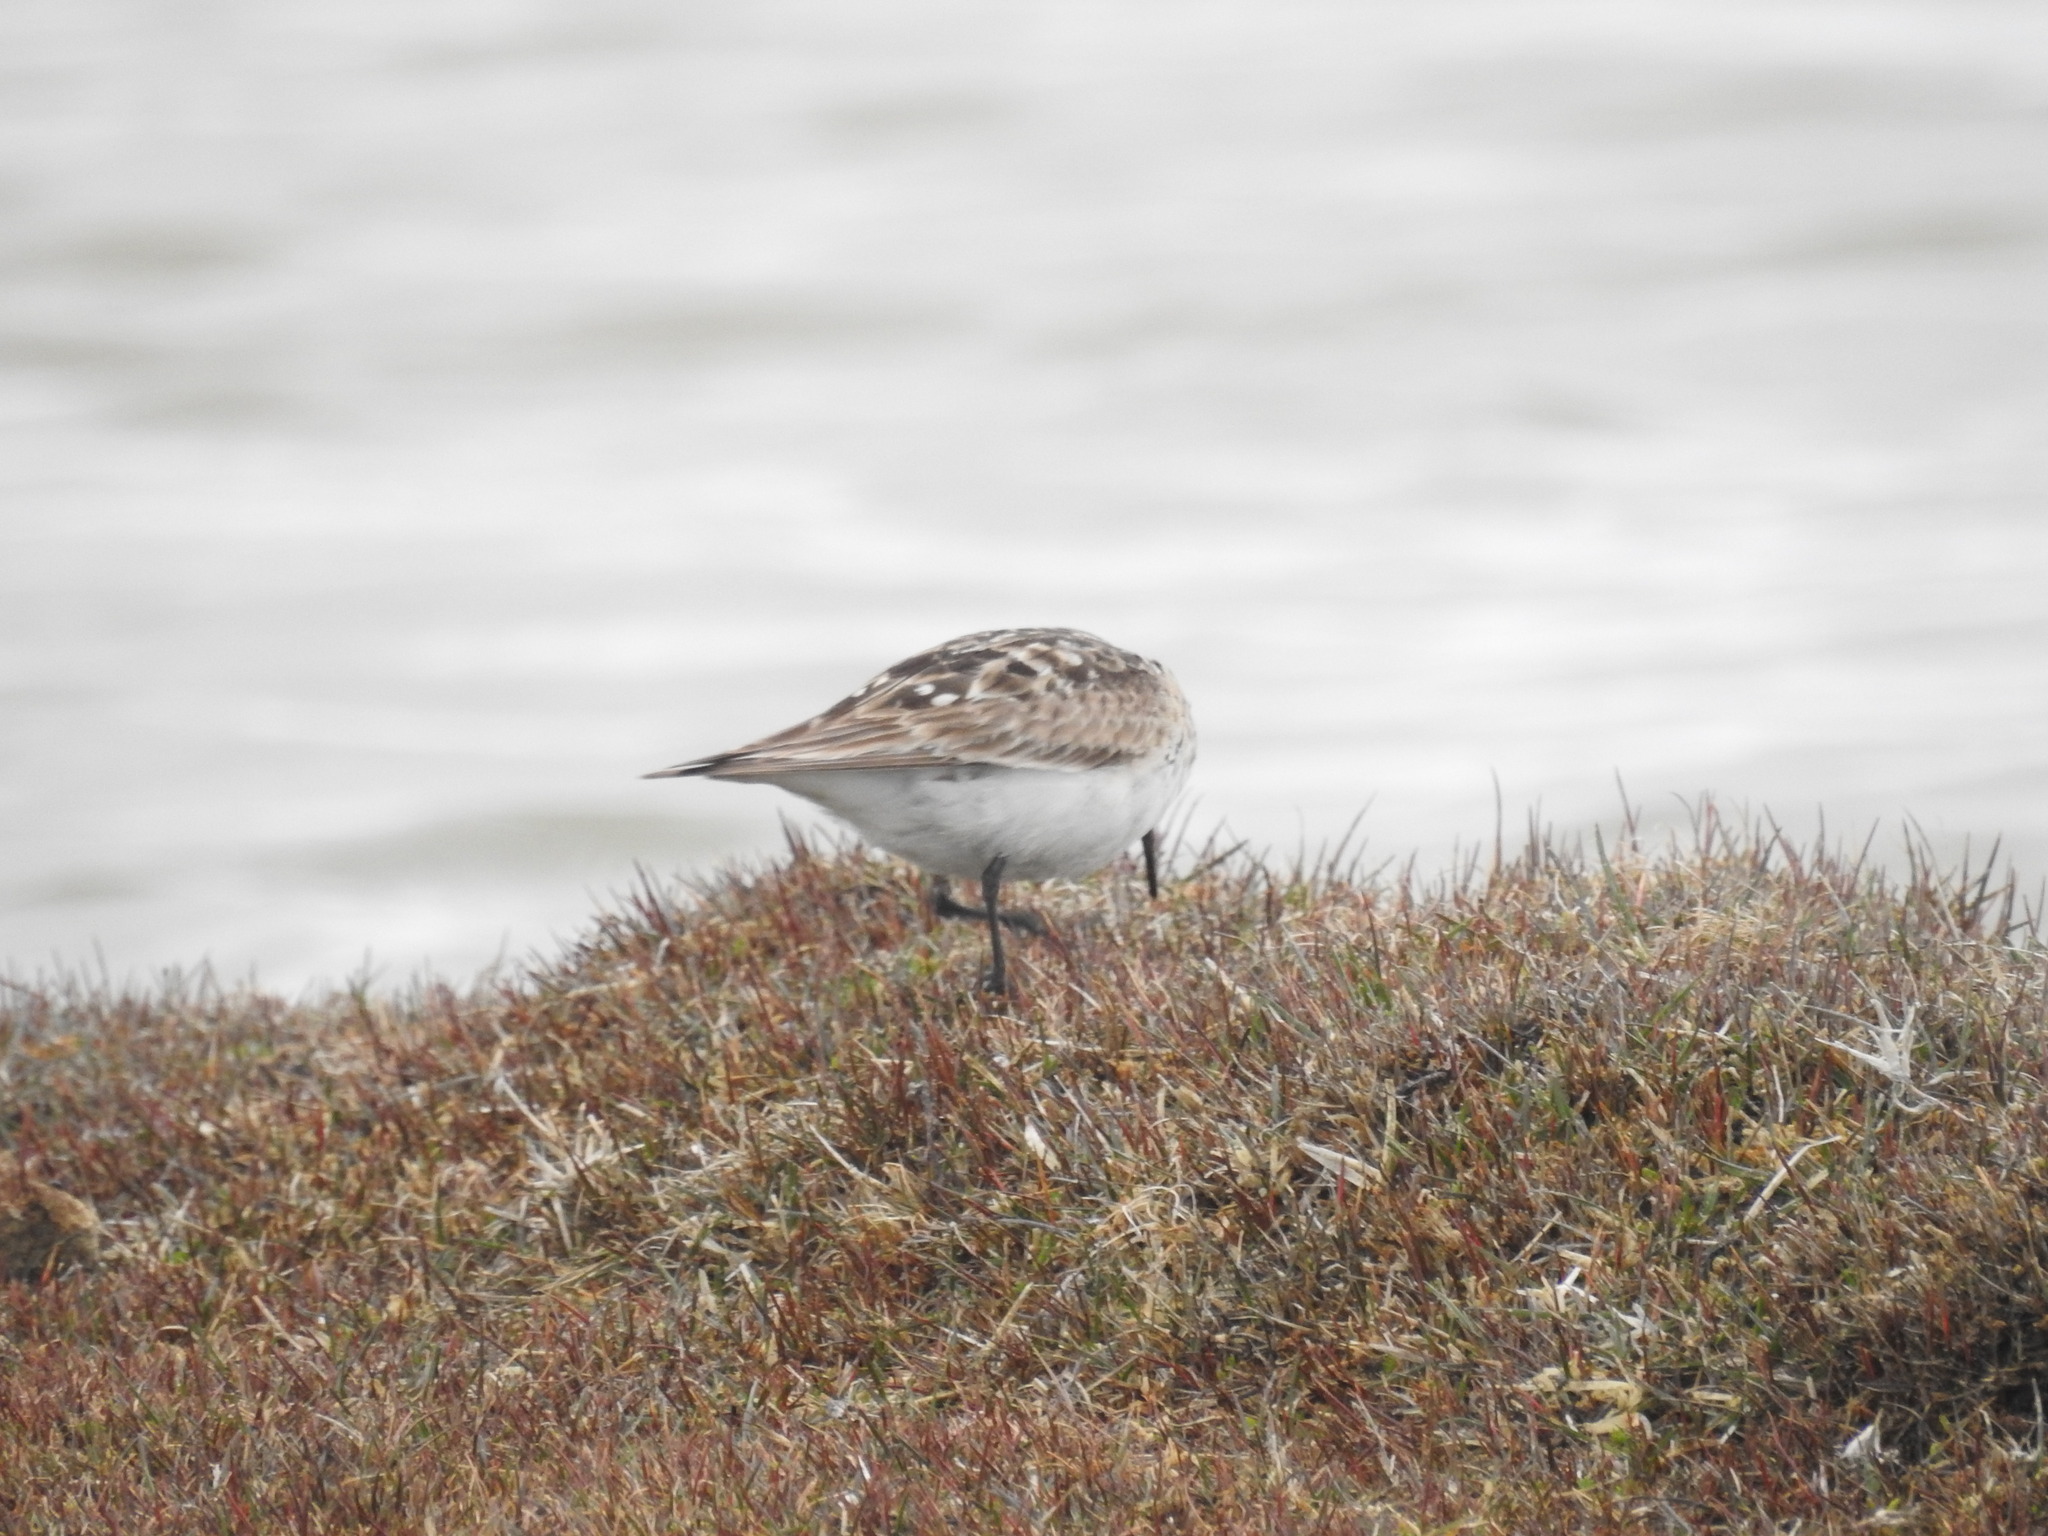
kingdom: Animalia
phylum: Chordata
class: Aves
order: Charadriiformes
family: Scolopacidae
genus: Calidris
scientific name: Calidris bairdii
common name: Baird's sandpiper
